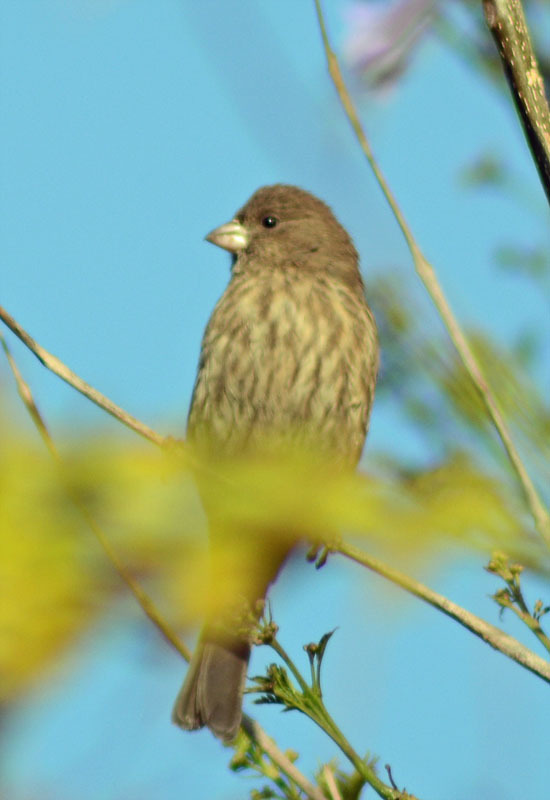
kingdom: Animalia
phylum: Chordata
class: Aves
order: Passeriformes
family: Fringillidae
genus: Haemorhous
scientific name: Haemorhous mexicanus
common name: House finch
